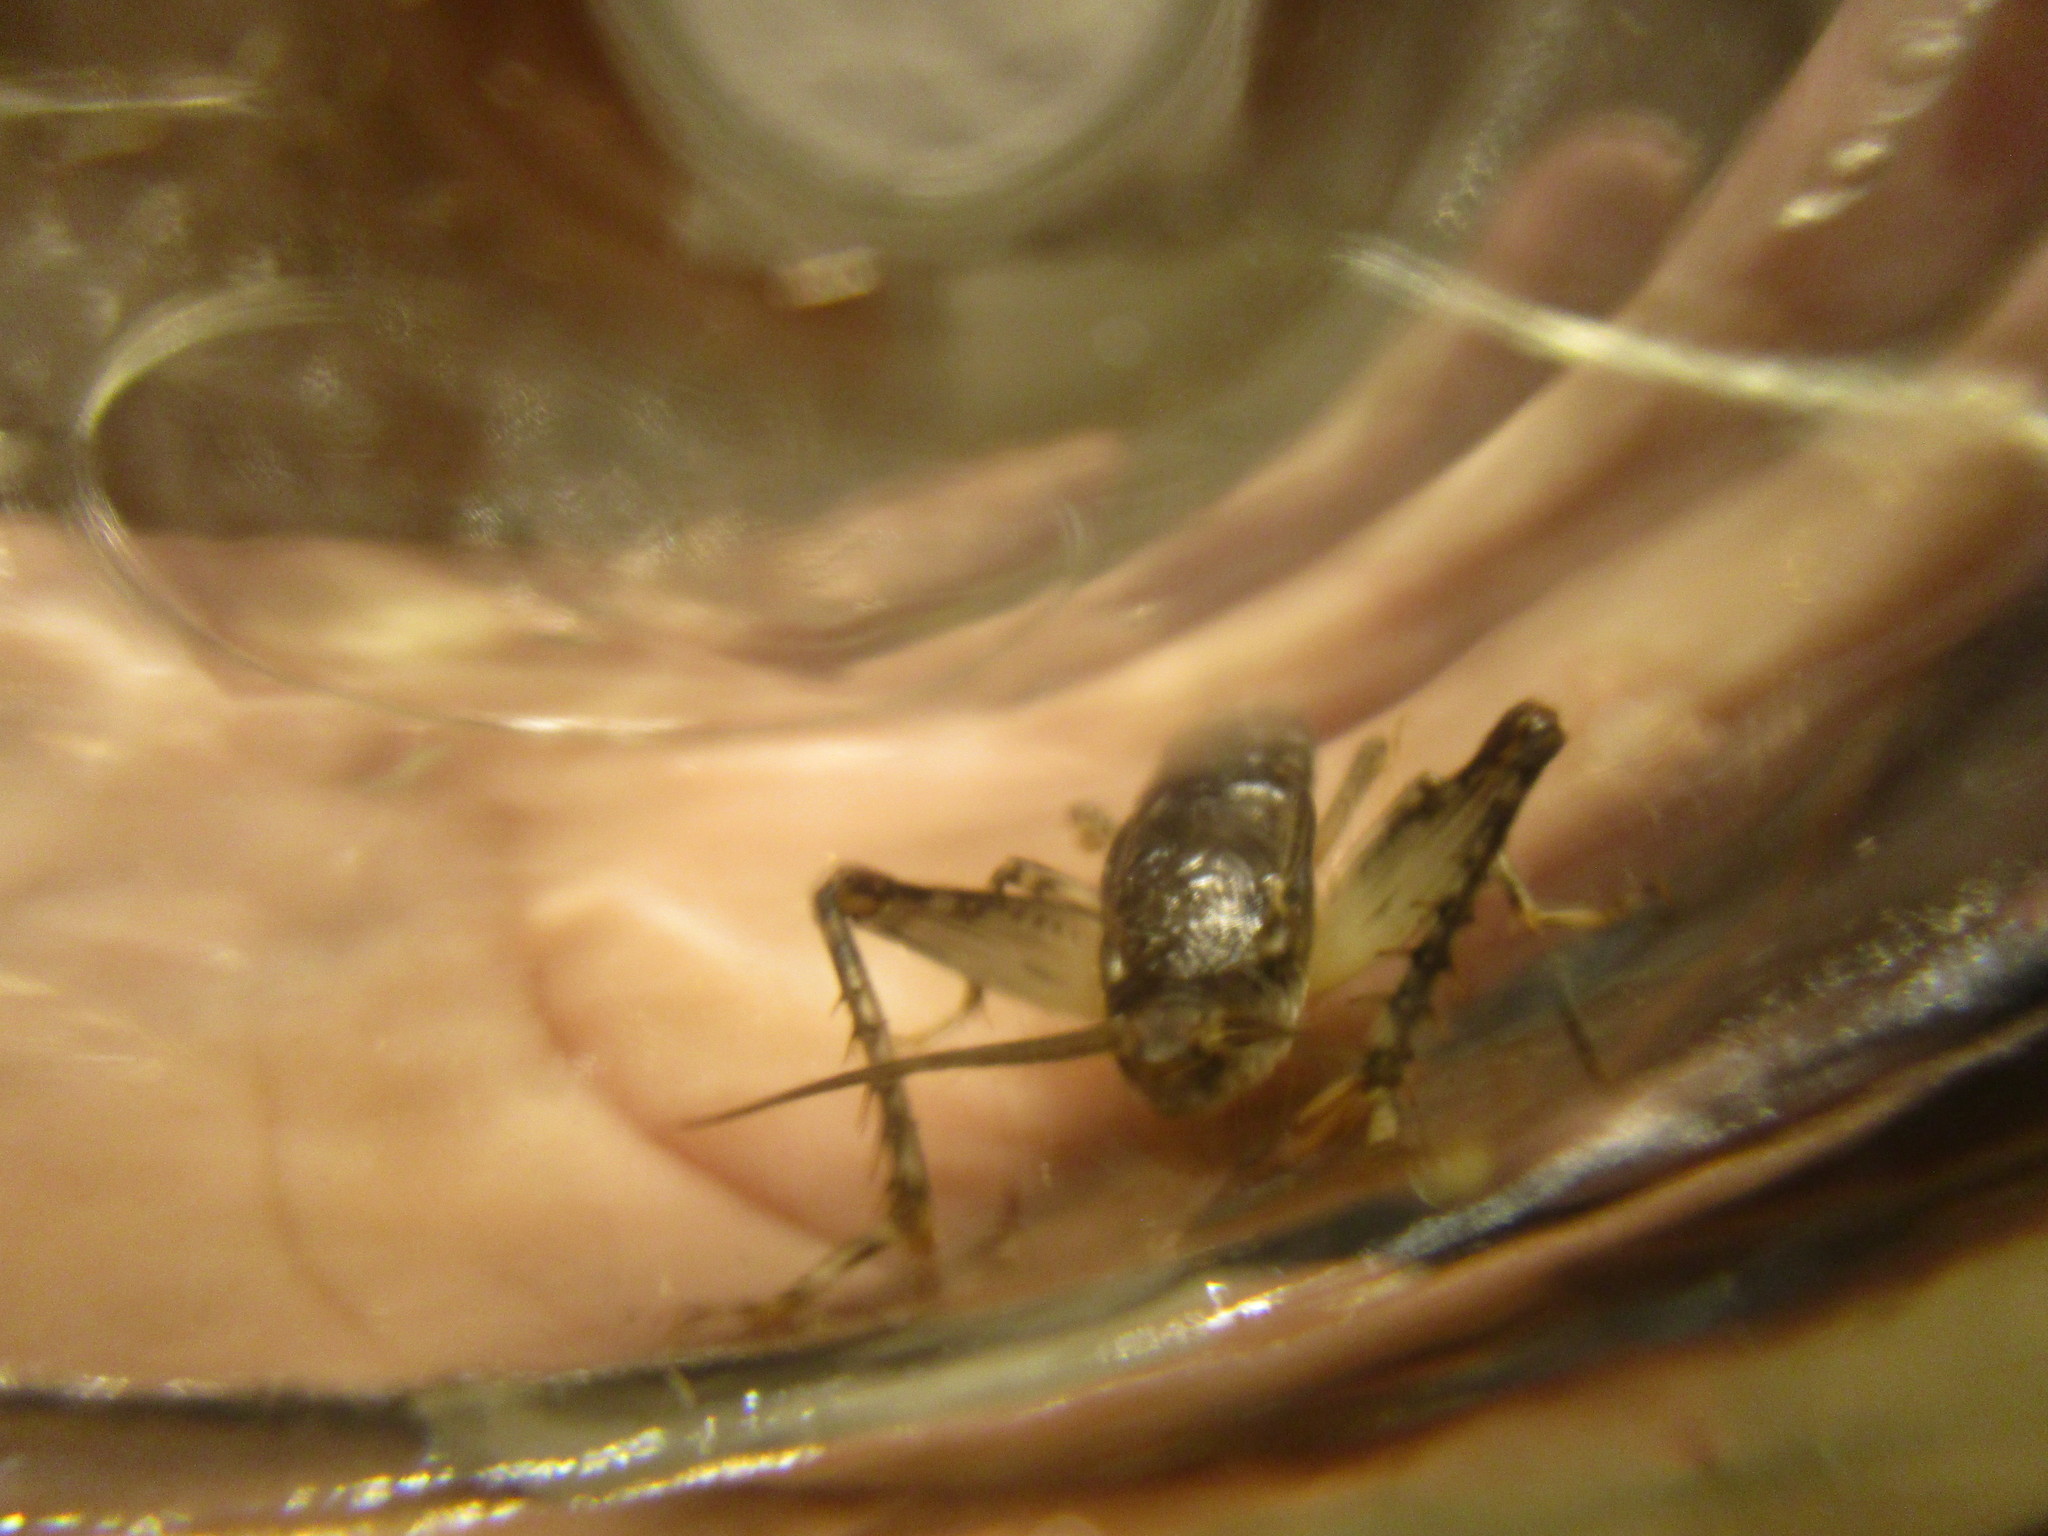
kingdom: Animalia
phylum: Arthropoda
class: Insecta
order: Orthoptera
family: Gryllidae
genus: Velarifictorus
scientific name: Velarifictorus micado
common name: Japanese burrowing cricket
